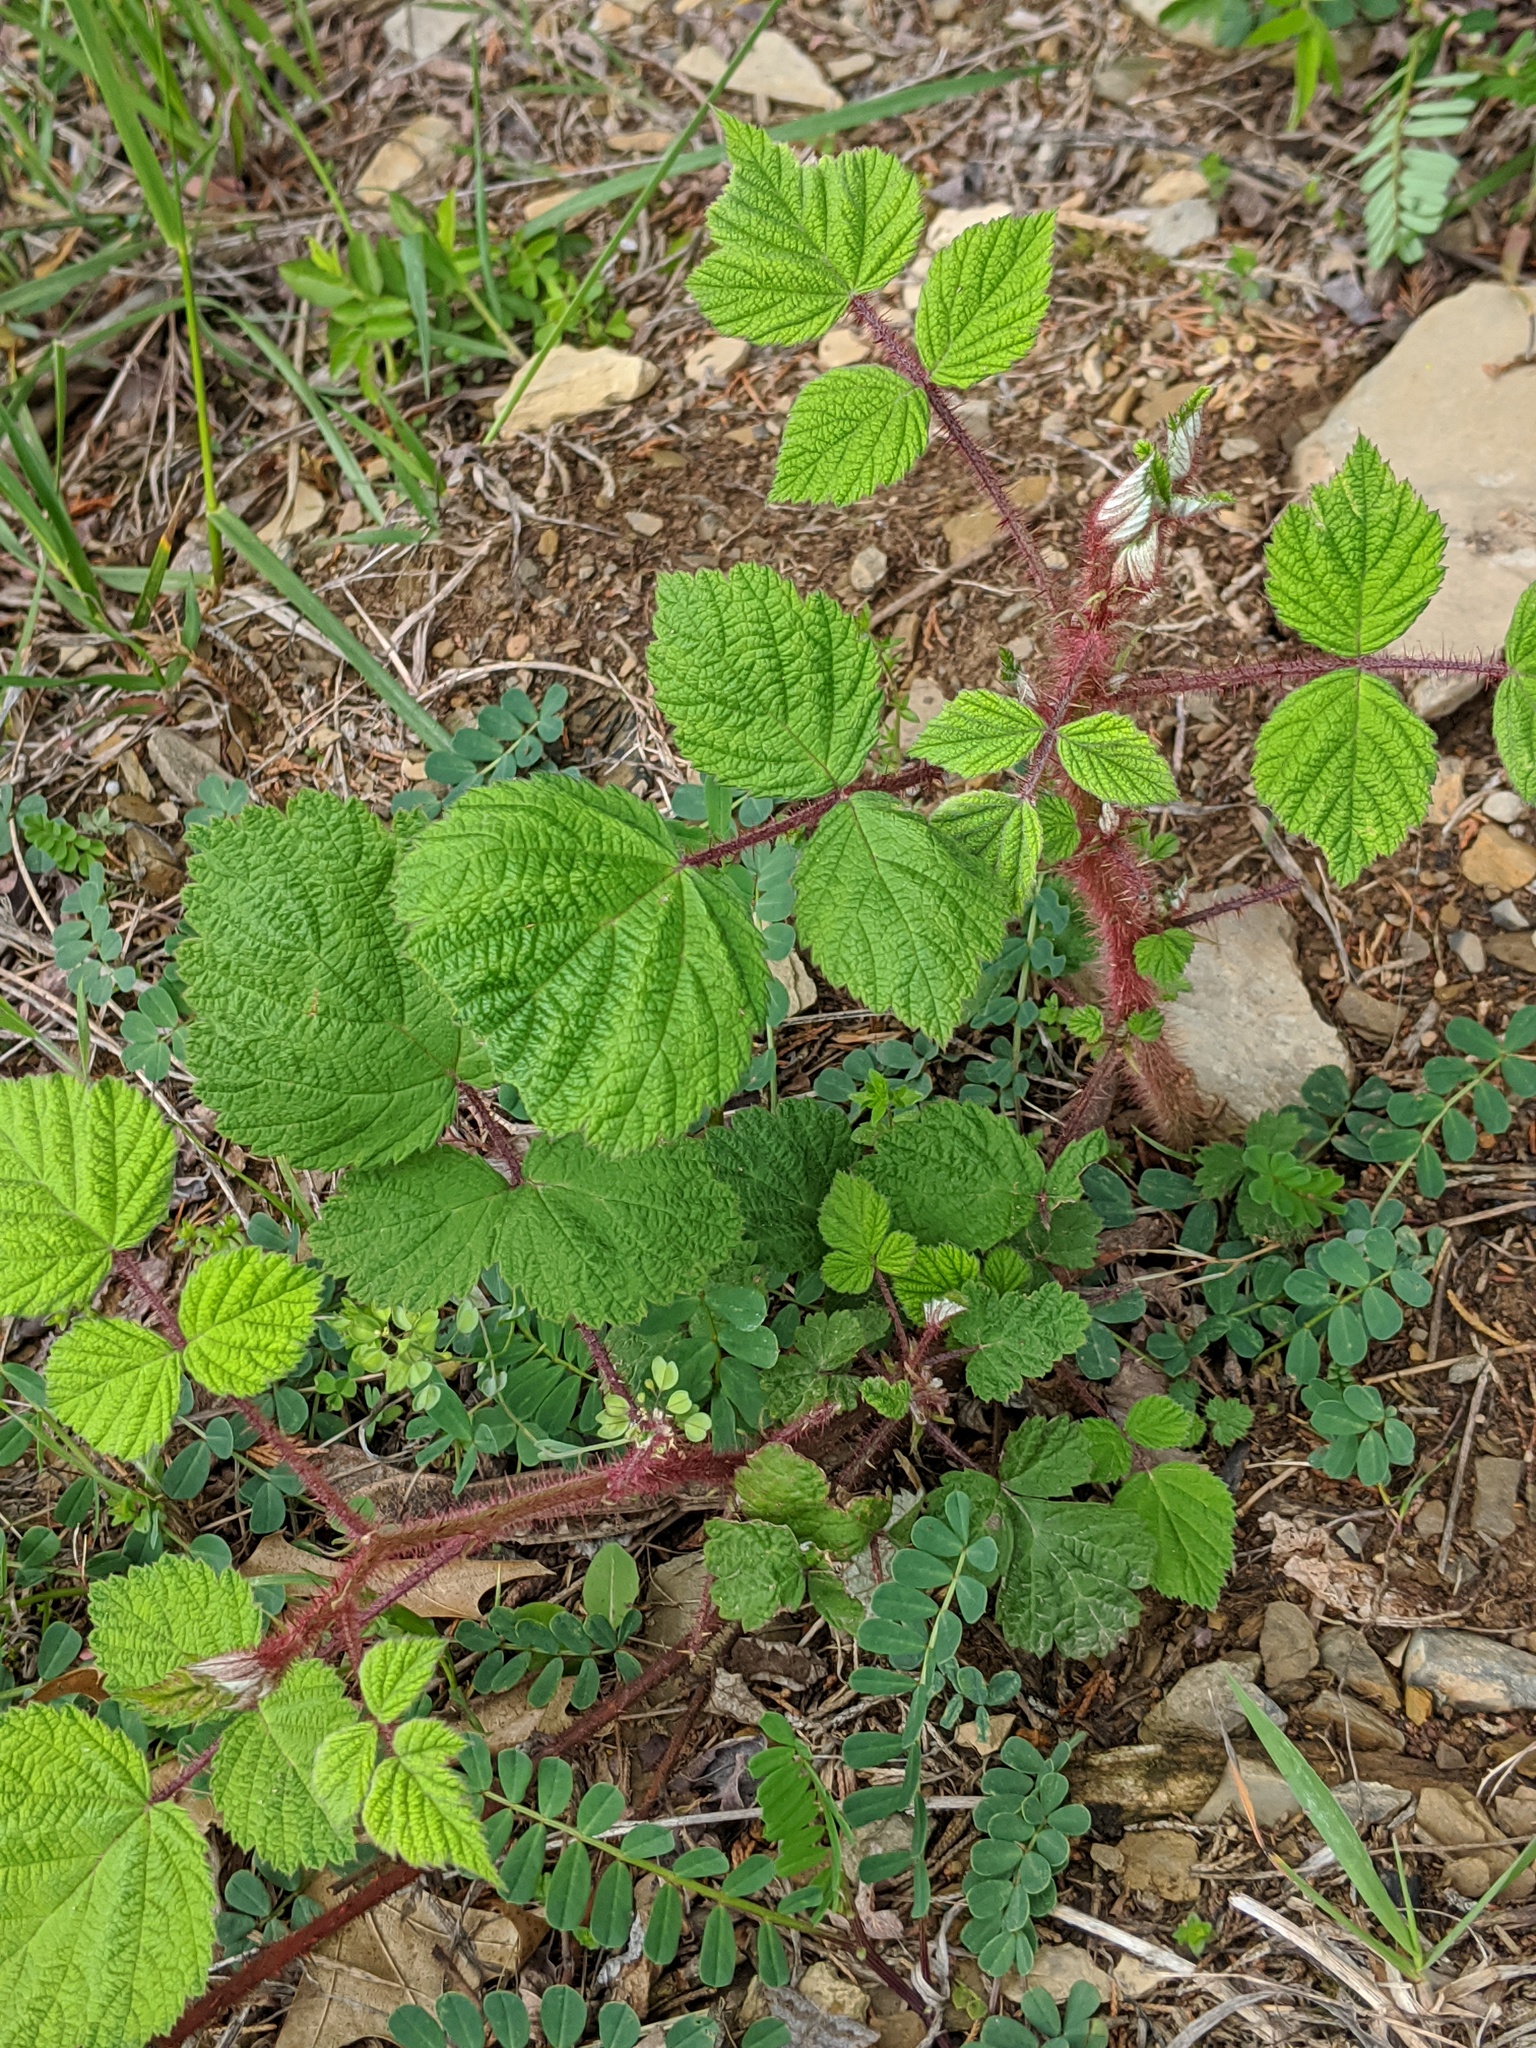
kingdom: Plantae
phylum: Tracheophyta
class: Magnoliopsida
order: Rosales
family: Rosaceae
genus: Rubus
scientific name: Rubus phoenicolasius
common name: Japanese wineberry
